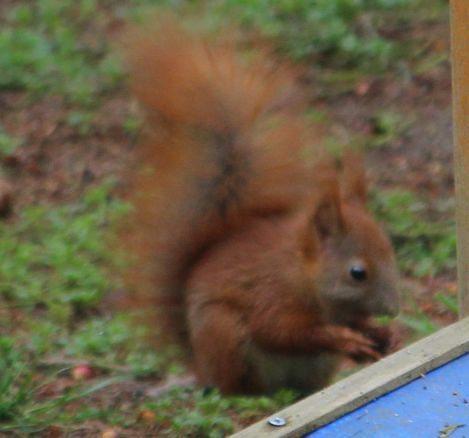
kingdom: Animalia
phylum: Chordata
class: Mammalia
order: Rodentia
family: Sciuridae
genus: Sciurus
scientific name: Sciurus vulgaris
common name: Eurasian red squirrel
